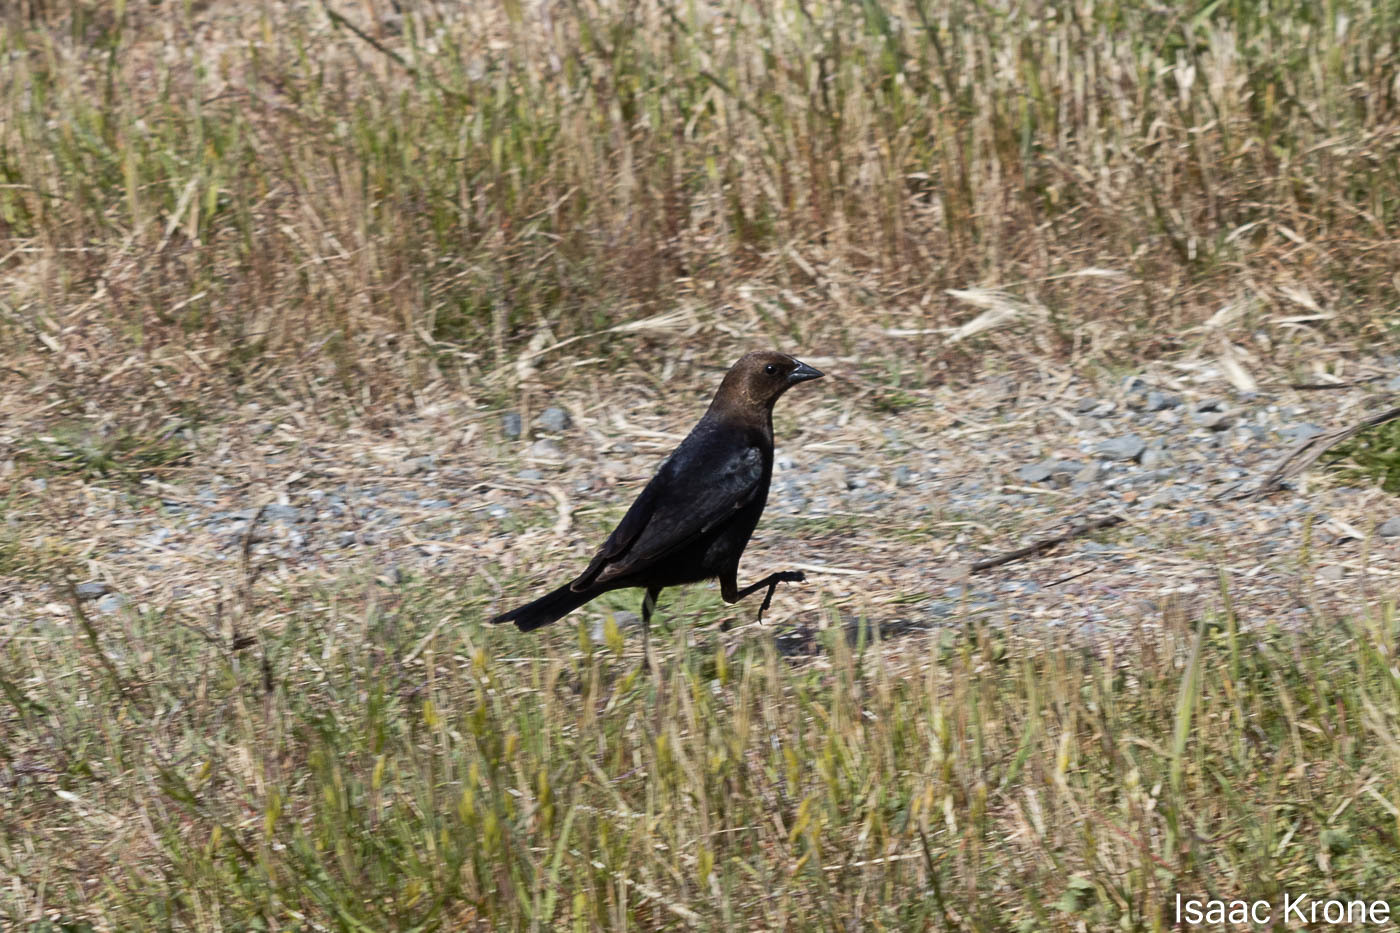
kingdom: Animalia
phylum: Chordata
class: Aves
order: Passeriformes
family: Icteridae
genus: Molothrus
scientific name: Molothrus ater
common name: Brown-headed cowbird
